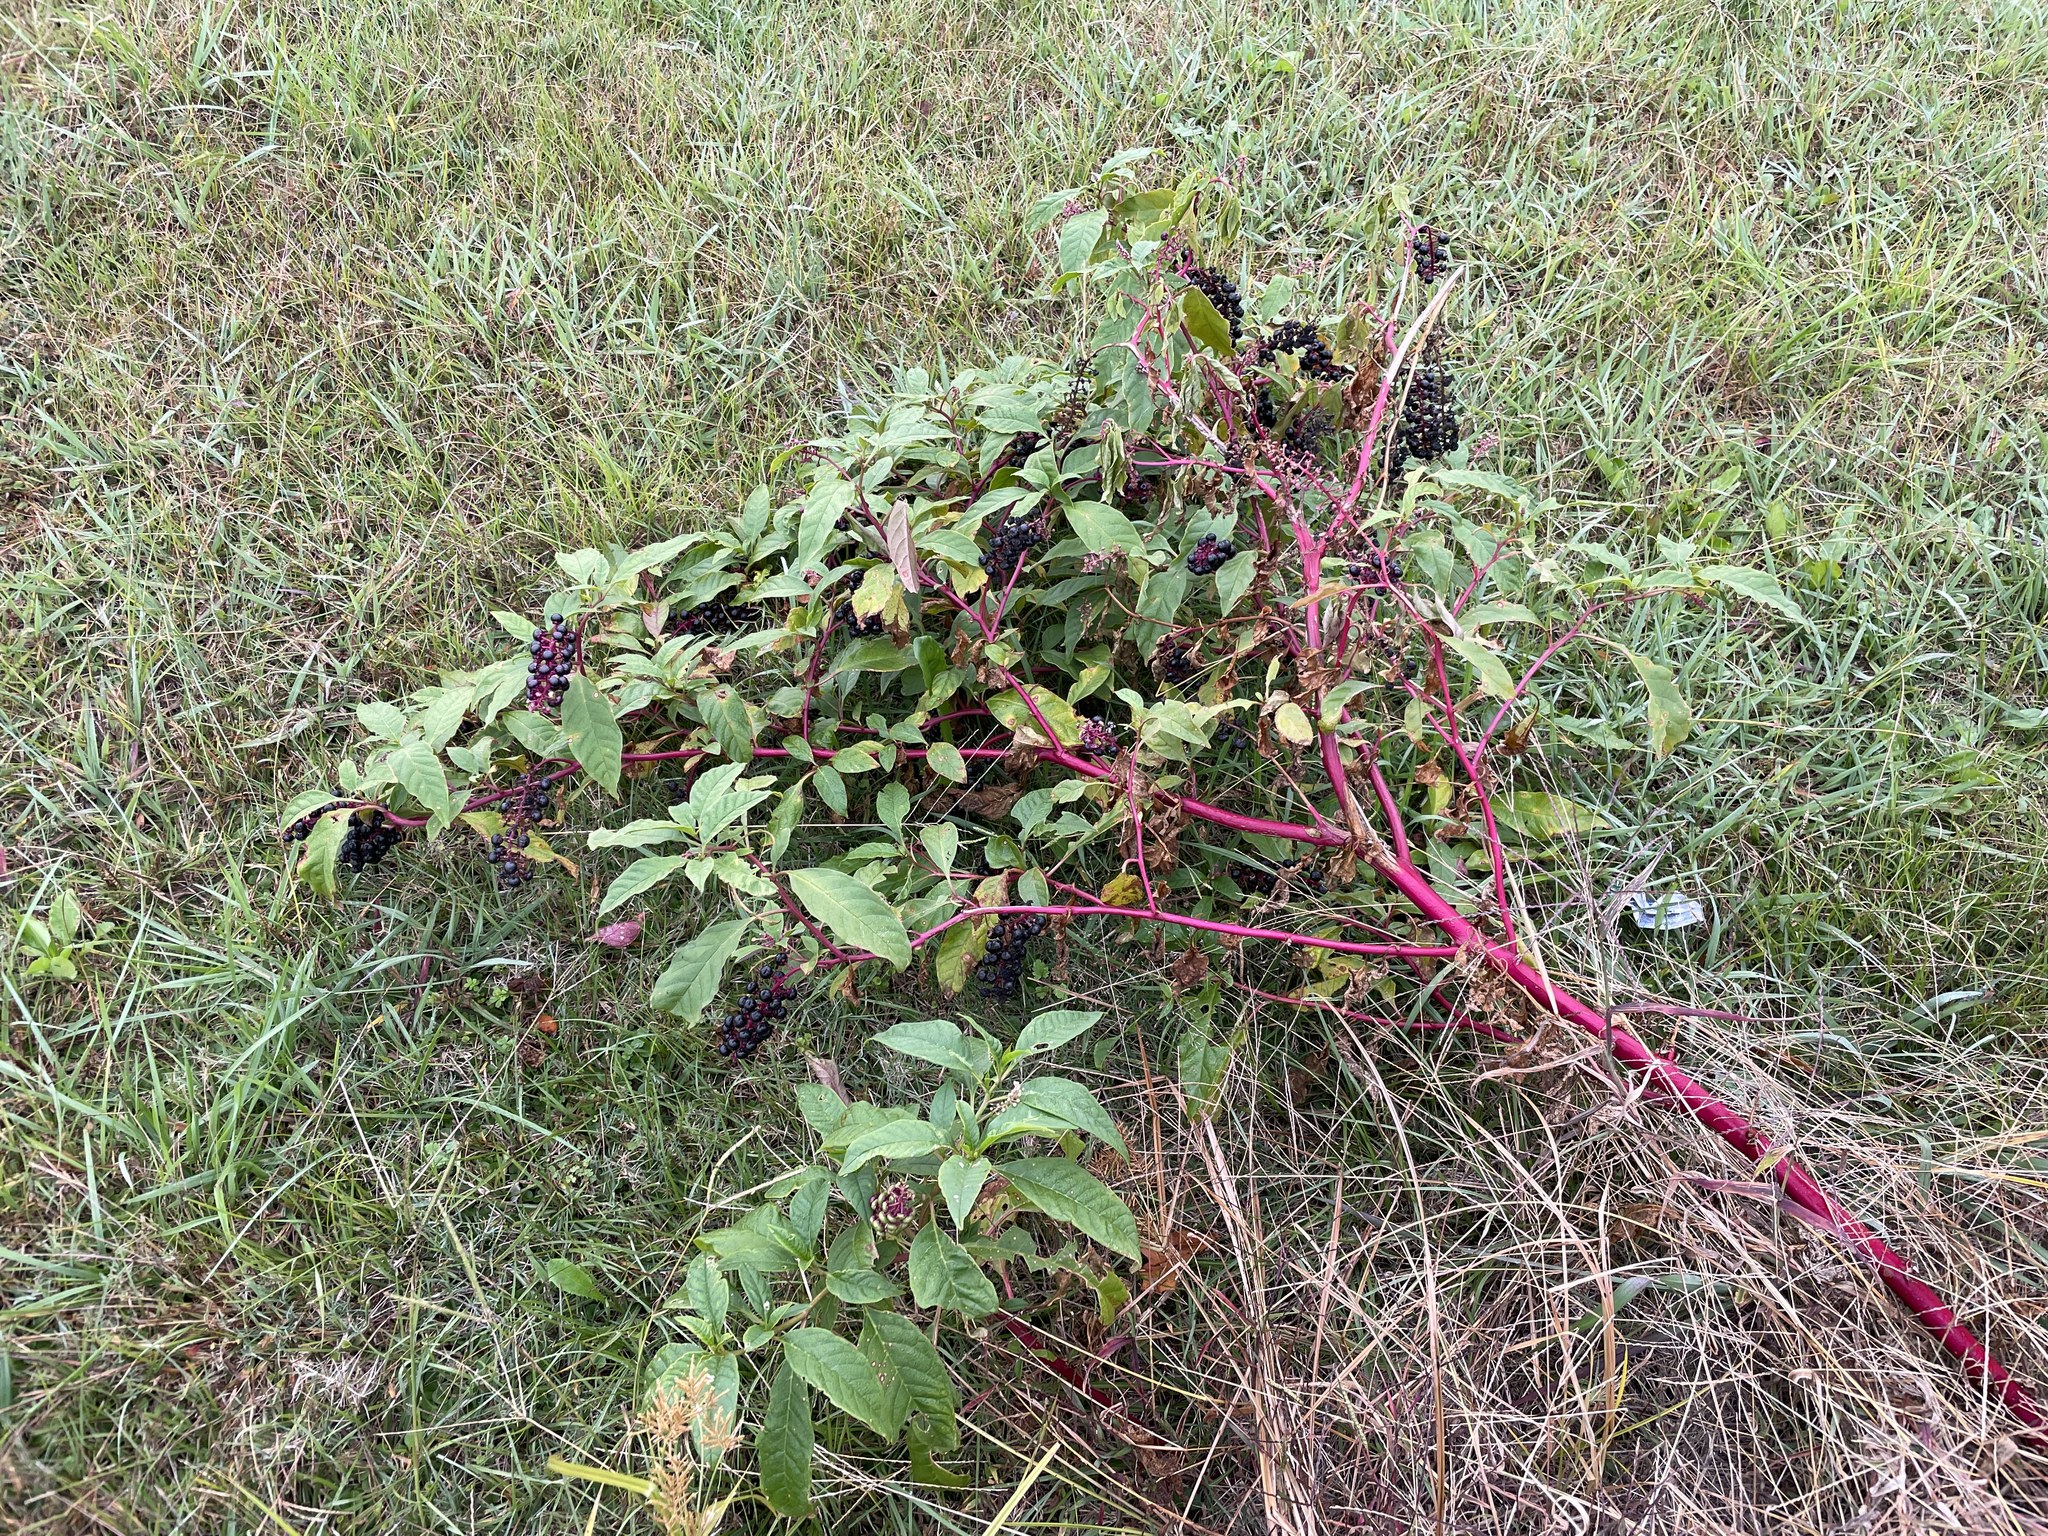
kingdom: Plantae
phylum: Tracheophyta
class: Magnoliopsida
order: Caryophyllales
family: Phytolaccaceae
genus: Phytolacca
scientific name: Phytolacca americana
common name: American pokeweed
